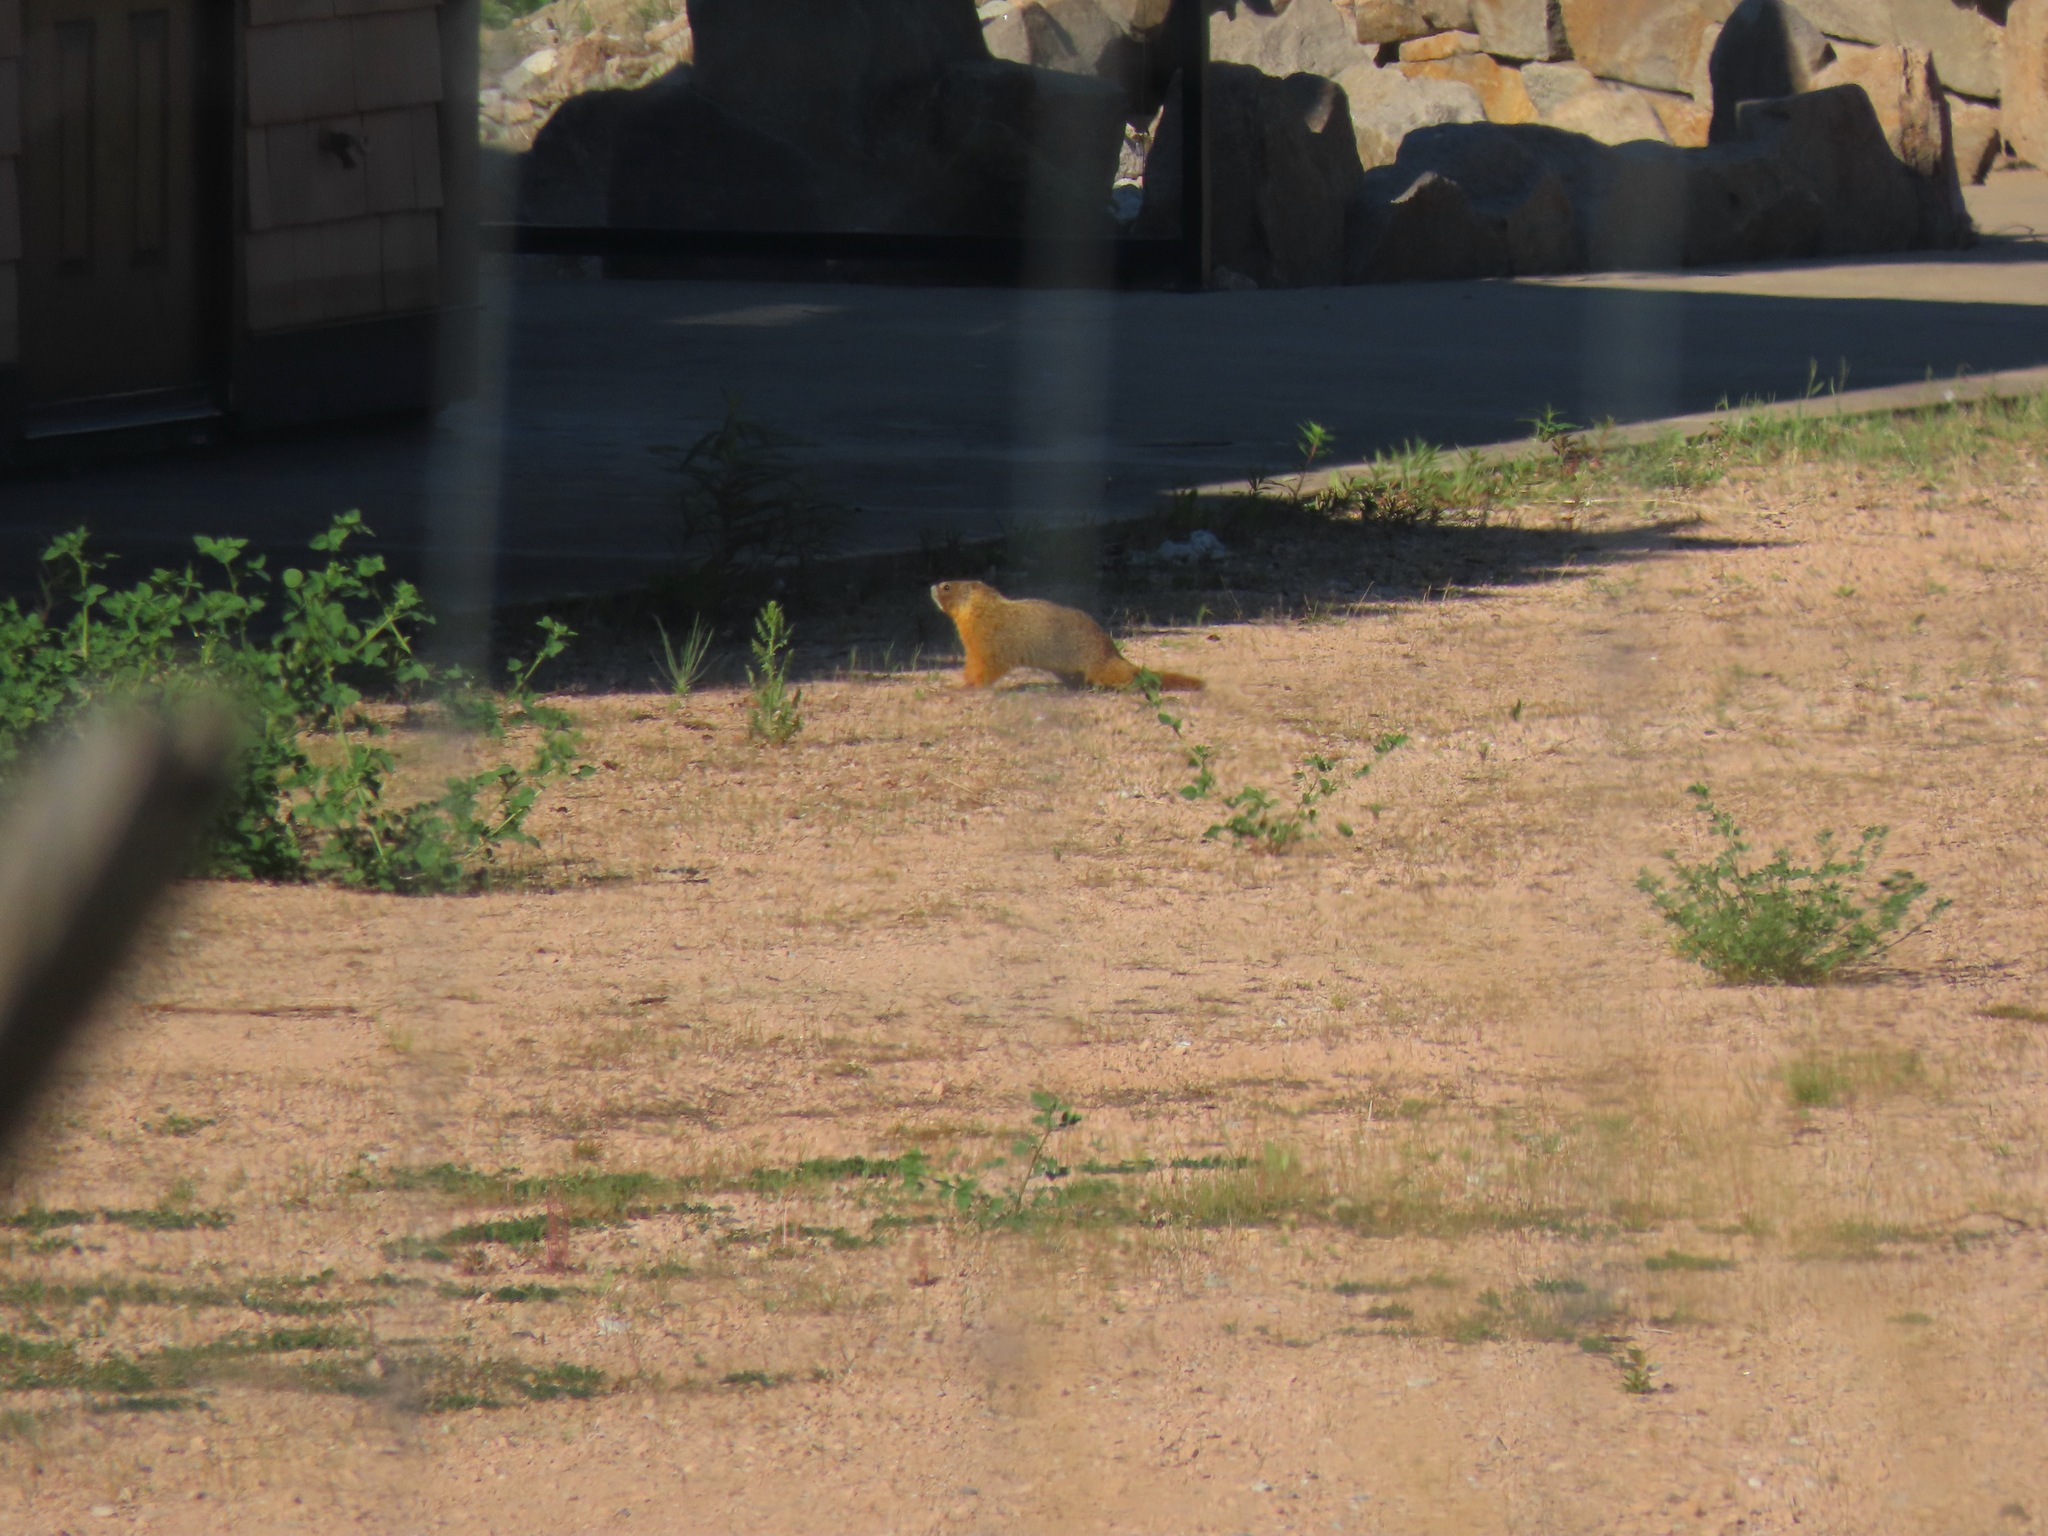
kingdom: Animalia
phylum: Chordata
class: Mammalia
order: Rodentia
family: Sciuridae
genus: Marmota
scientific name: Marmota flaviventris
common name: Yellow-bellied marmot
